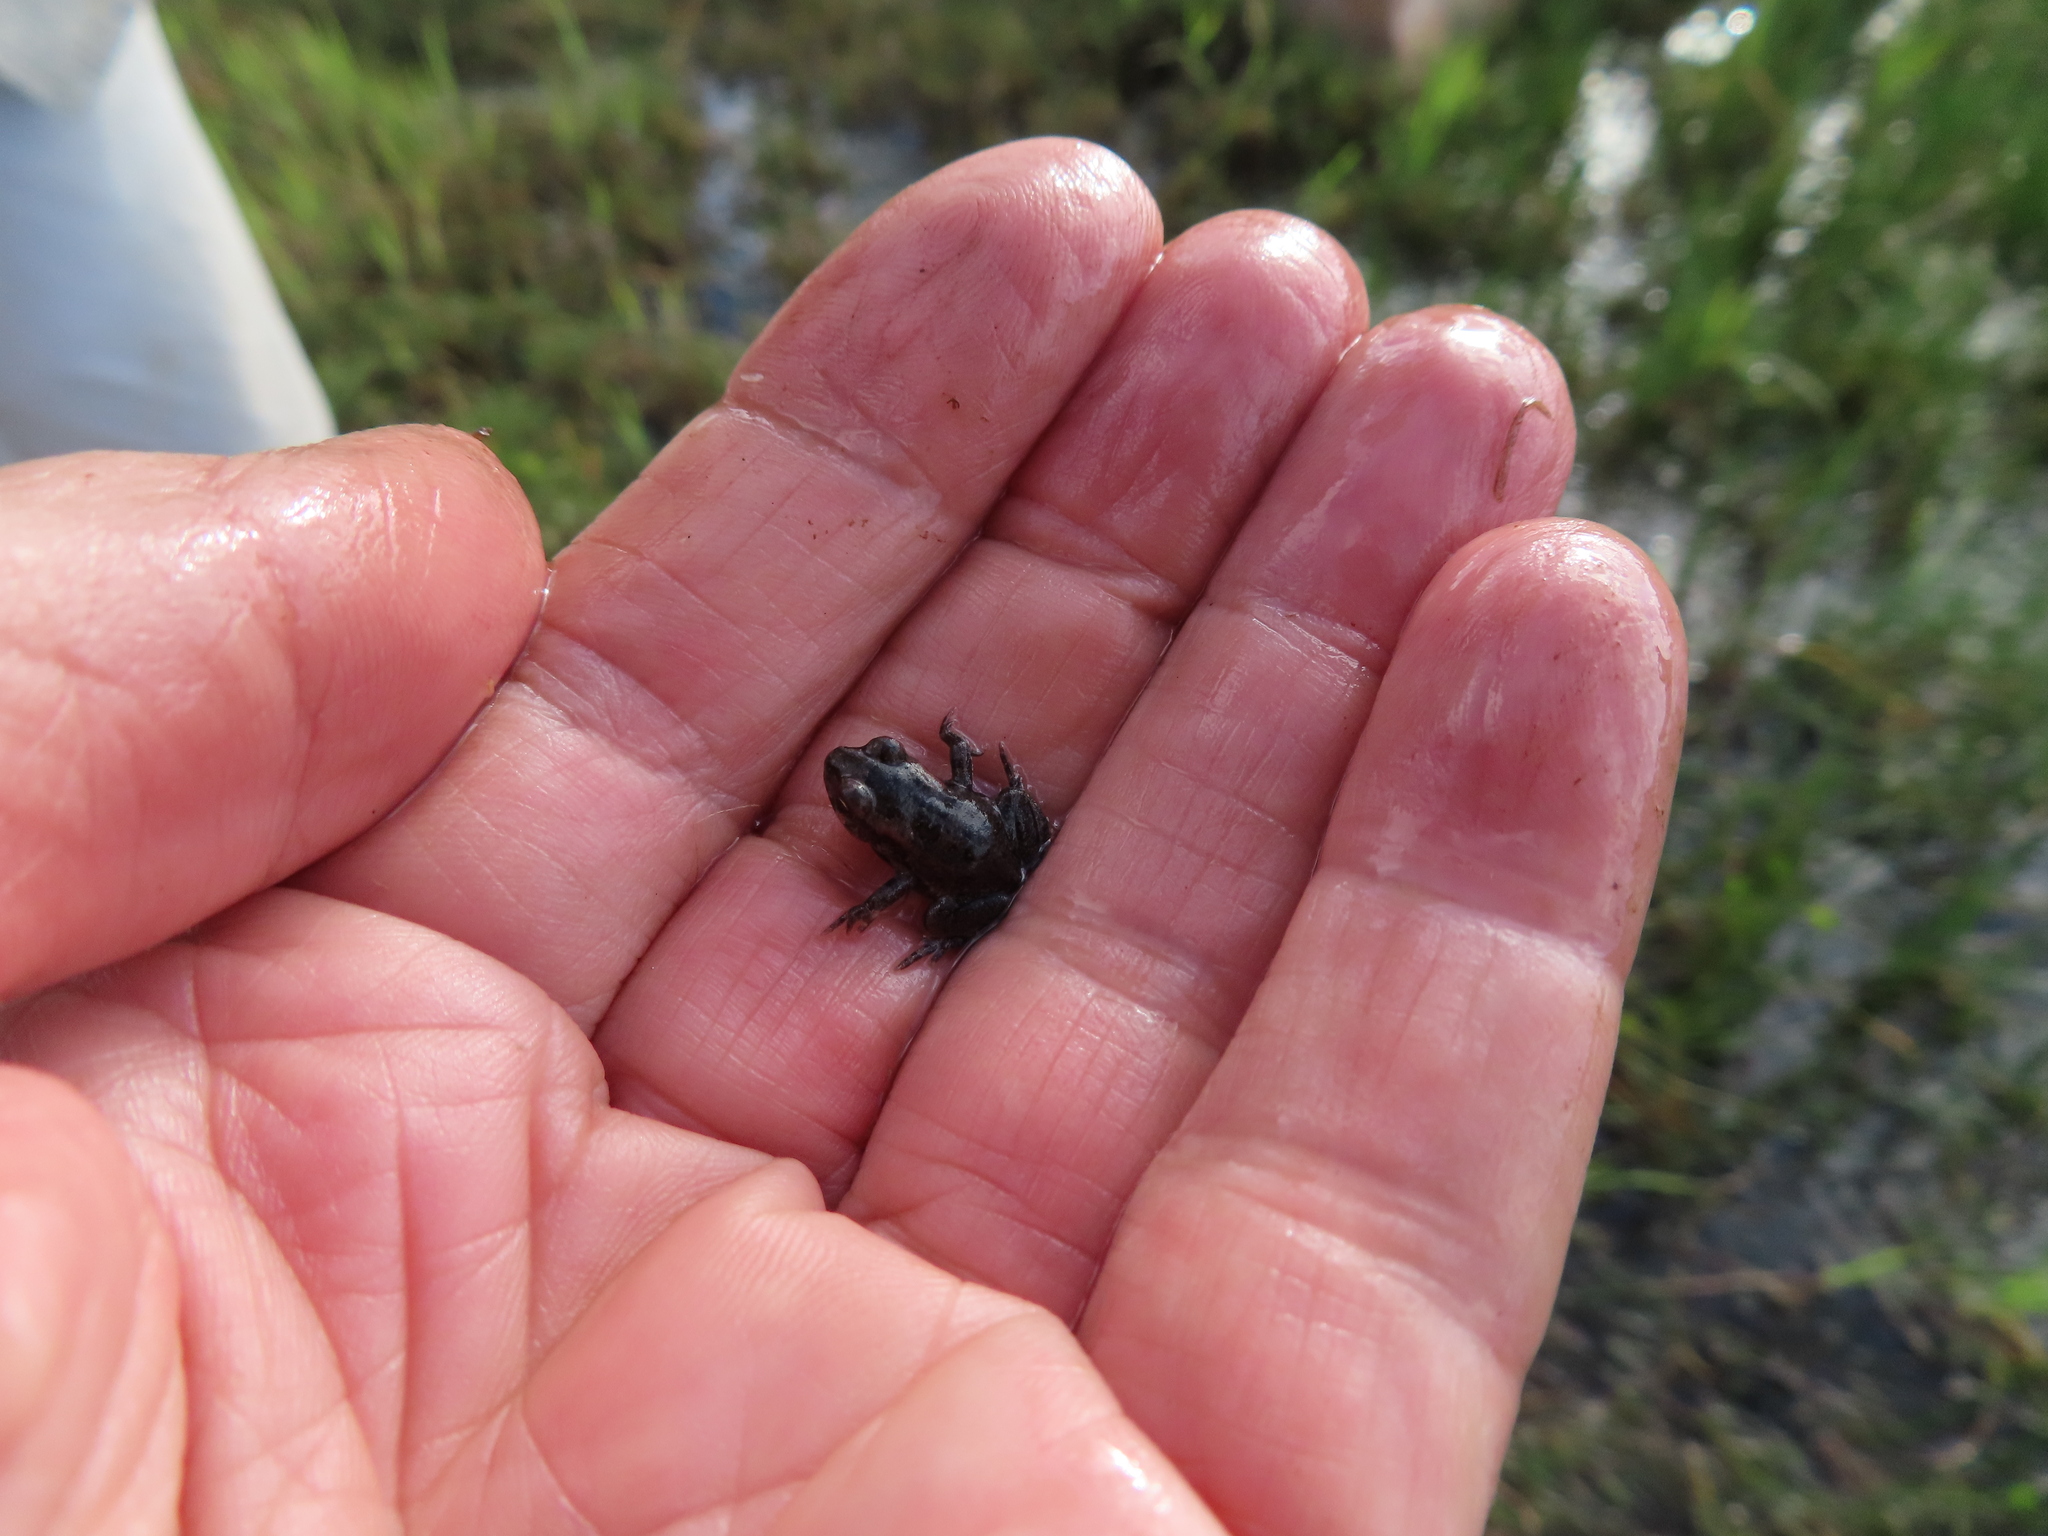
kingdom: Animalia
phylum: Chordata
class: Amphibia
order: Anura
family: Bufonidae
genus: Sclerophrys
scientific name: Sclerophrys capensis
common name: Ranger’s toad
